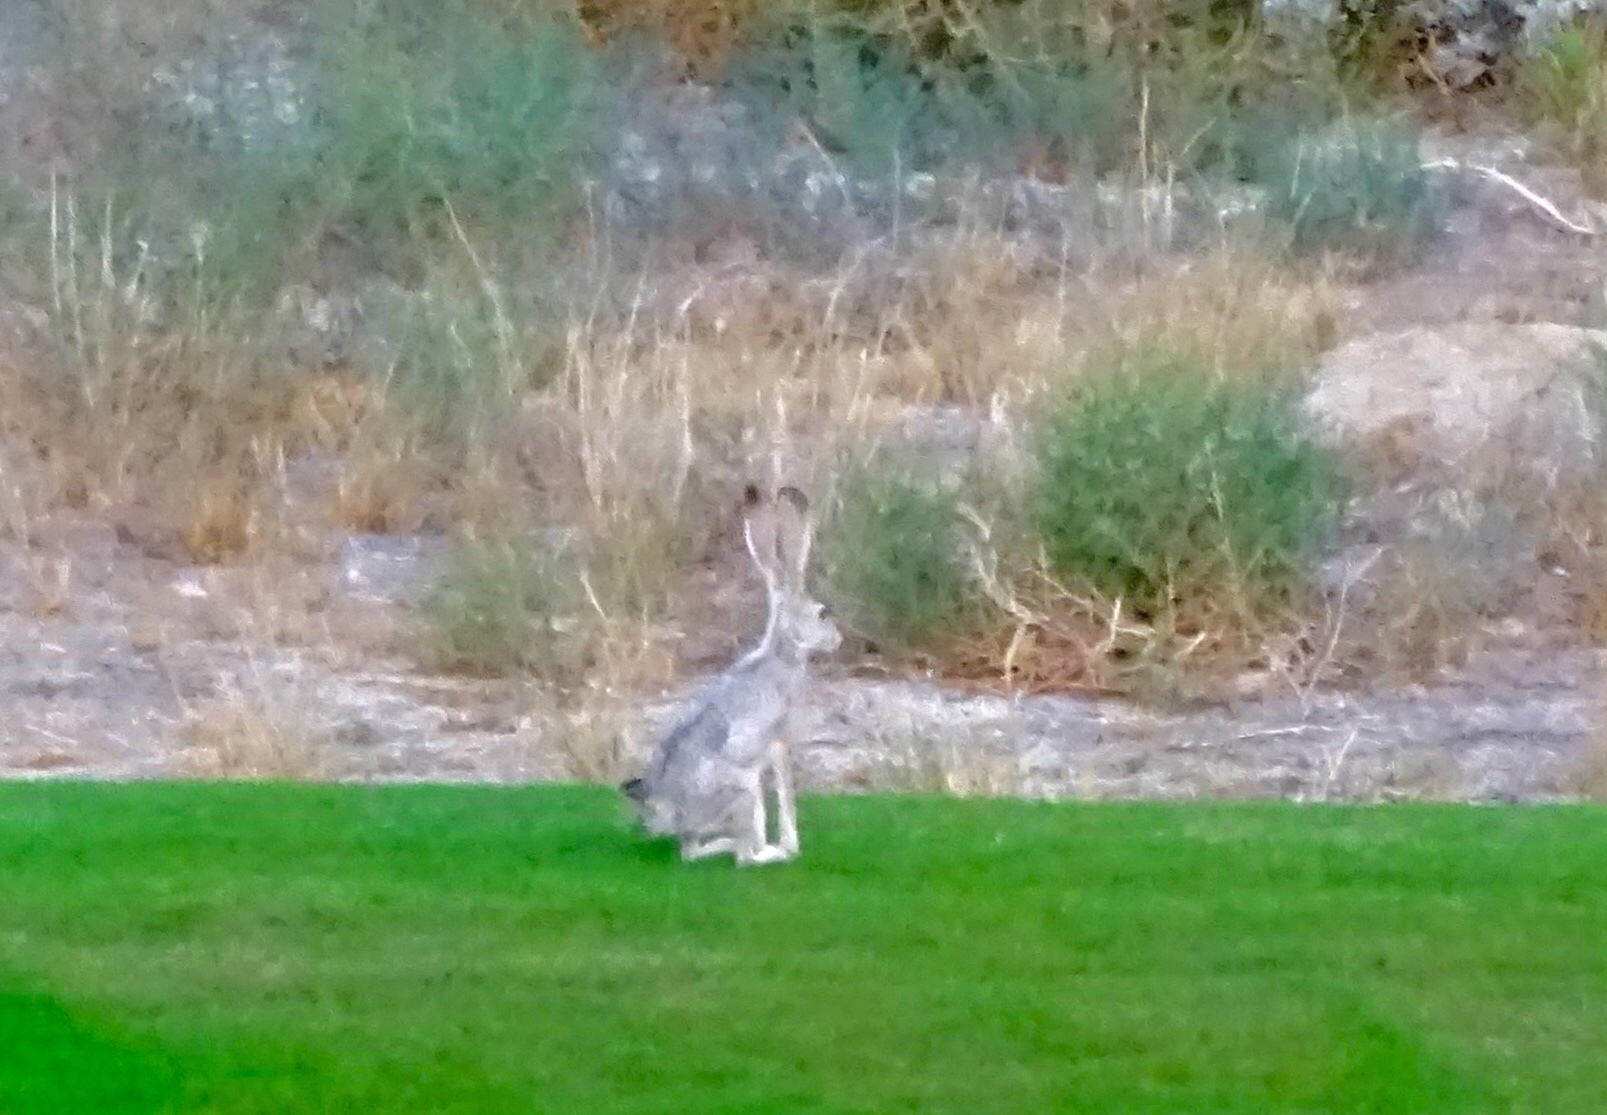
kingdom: Animalia
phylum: Chordata
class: Mammalia
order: Lagomorpha
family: Leporidae
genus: Lepus
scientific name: Lepus californicus
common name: Black-tailed jackrabbit
